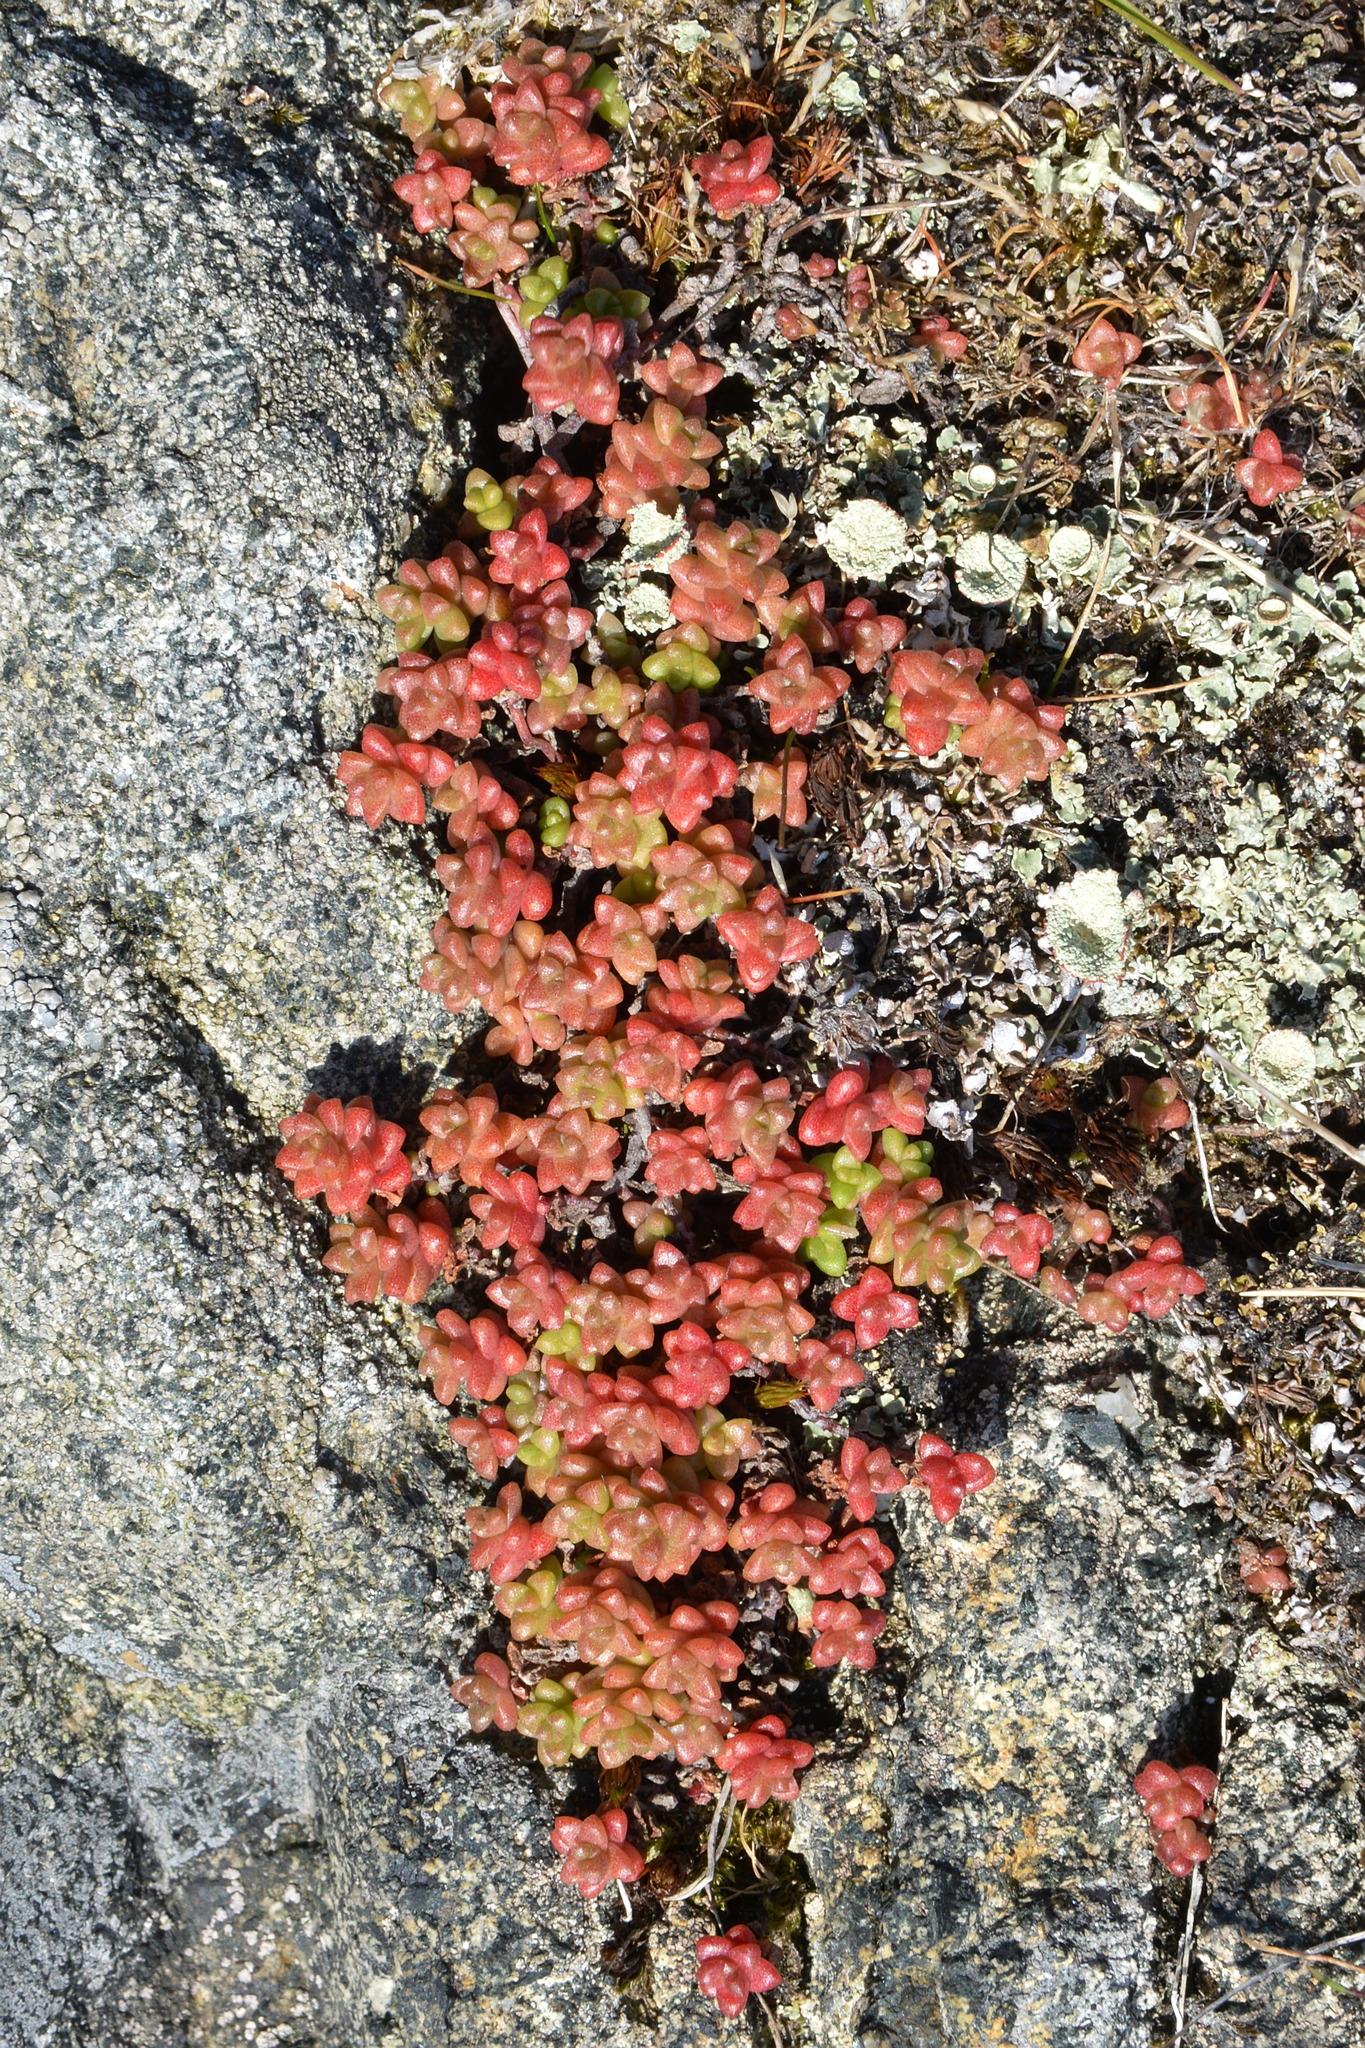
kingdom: Plantae
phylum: Tracheophyta
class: Magnoliopsida
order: Saxifragales
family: Crassulaceae
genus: Sedum
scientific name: Sedum anglicum
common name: English stonecrop
